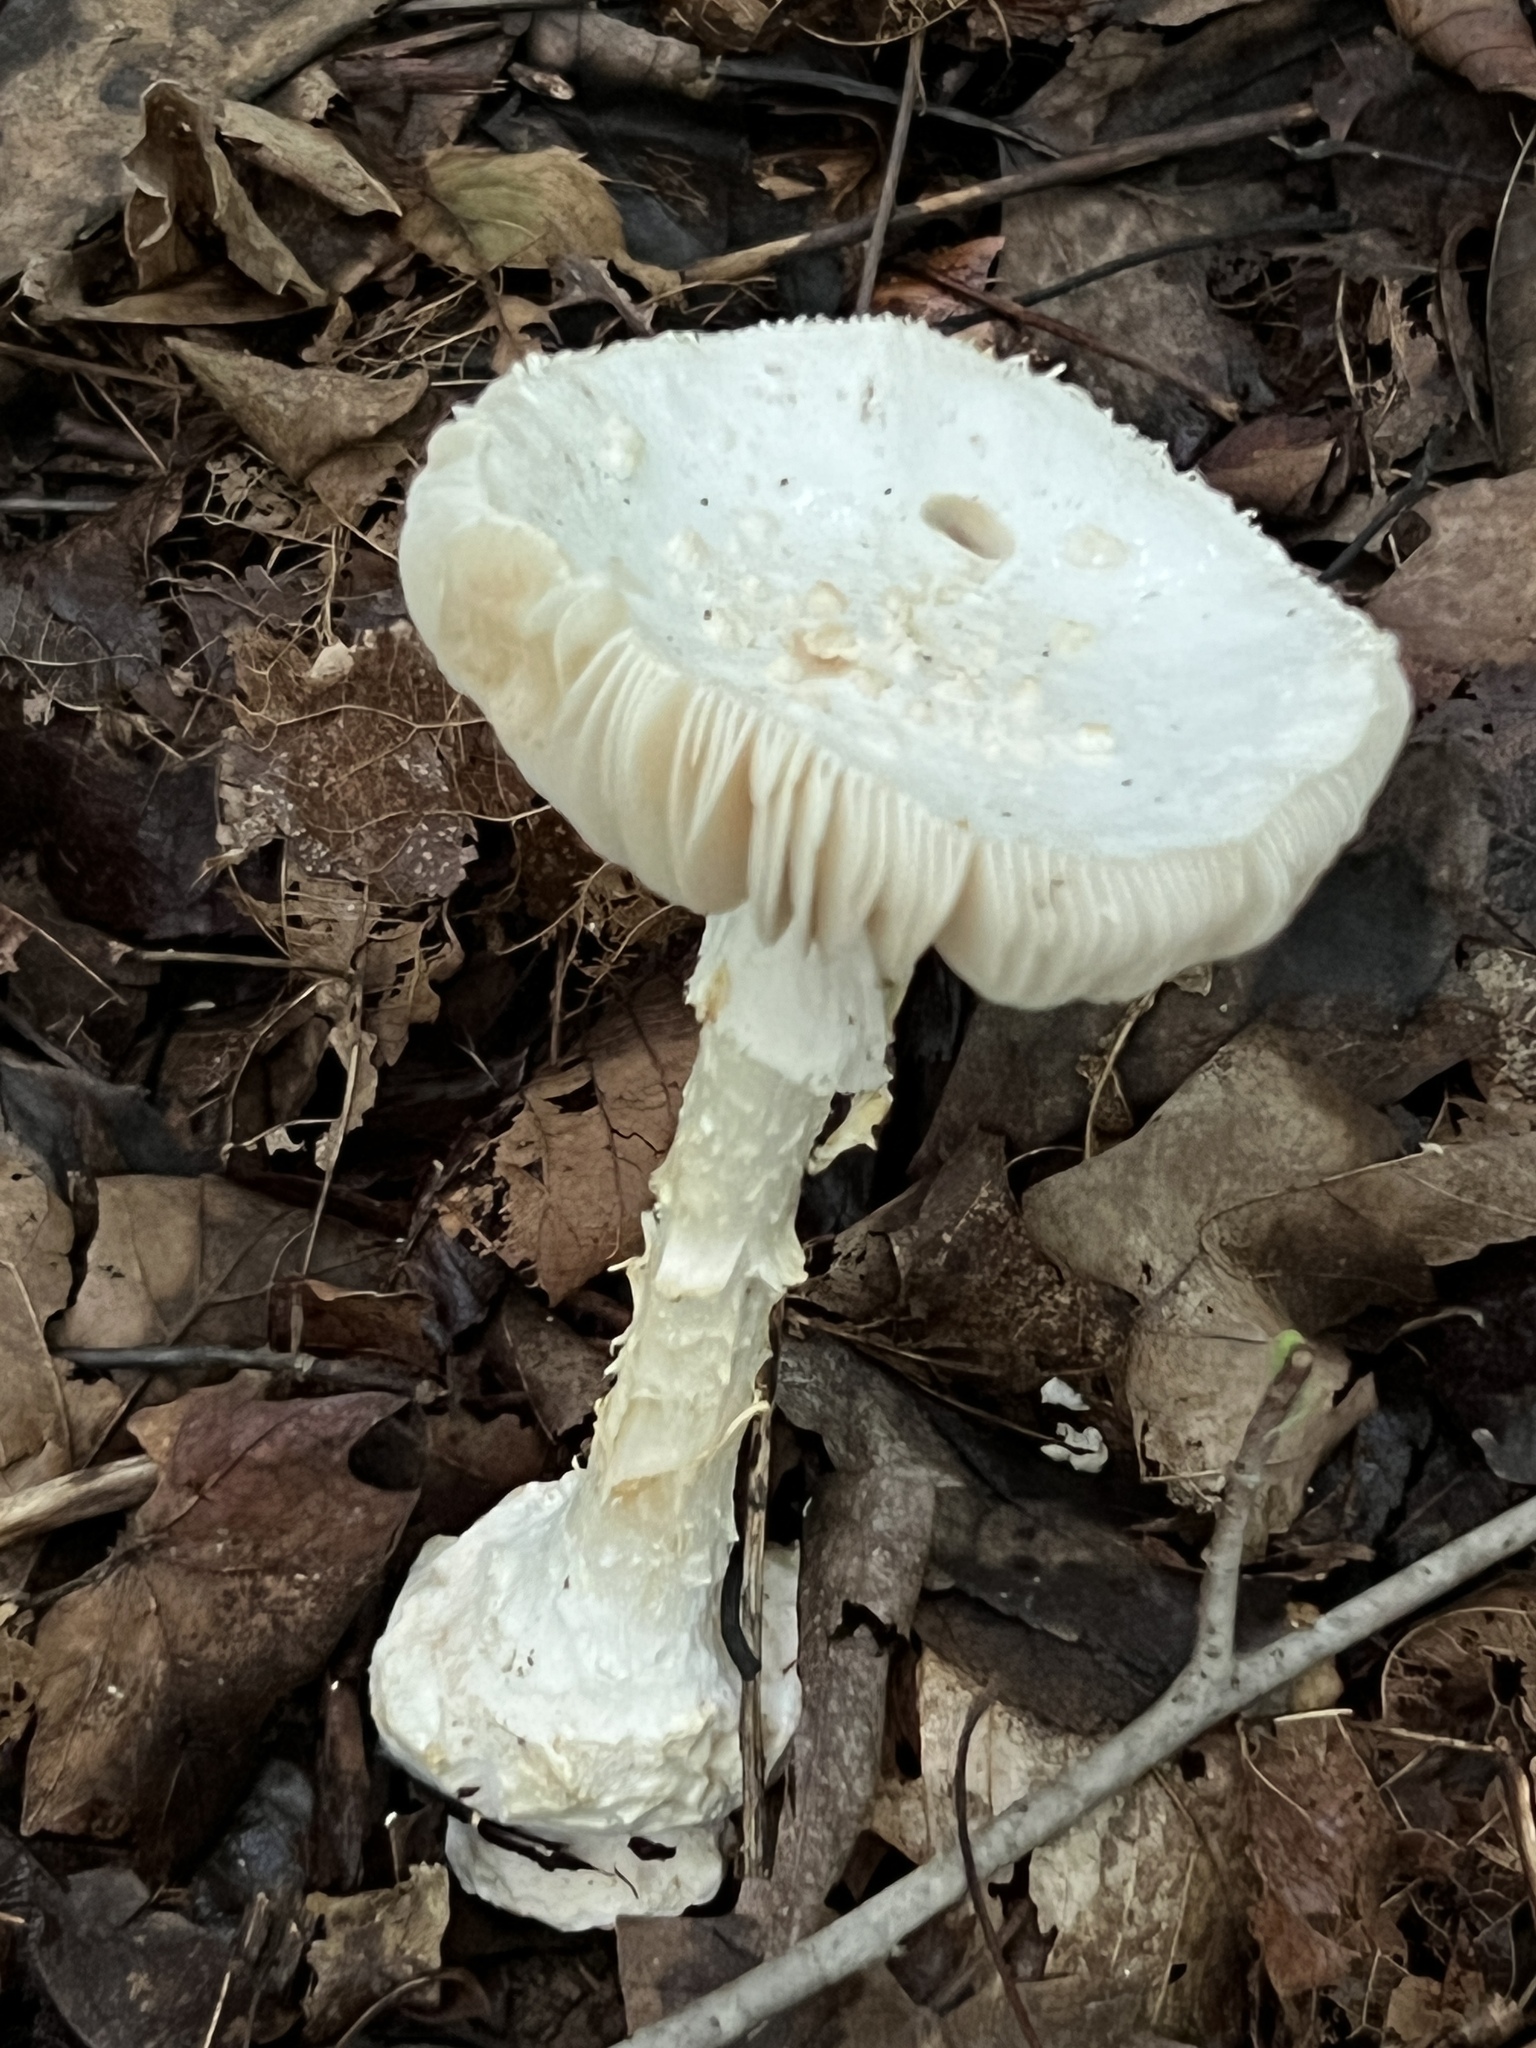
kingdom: Fungi
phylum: Basidiomycota
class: Agaricomycetes
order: Agaricales
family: Amanitaceae
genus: Amanita
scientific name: Amanita cokeri
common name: Coker's amanita
